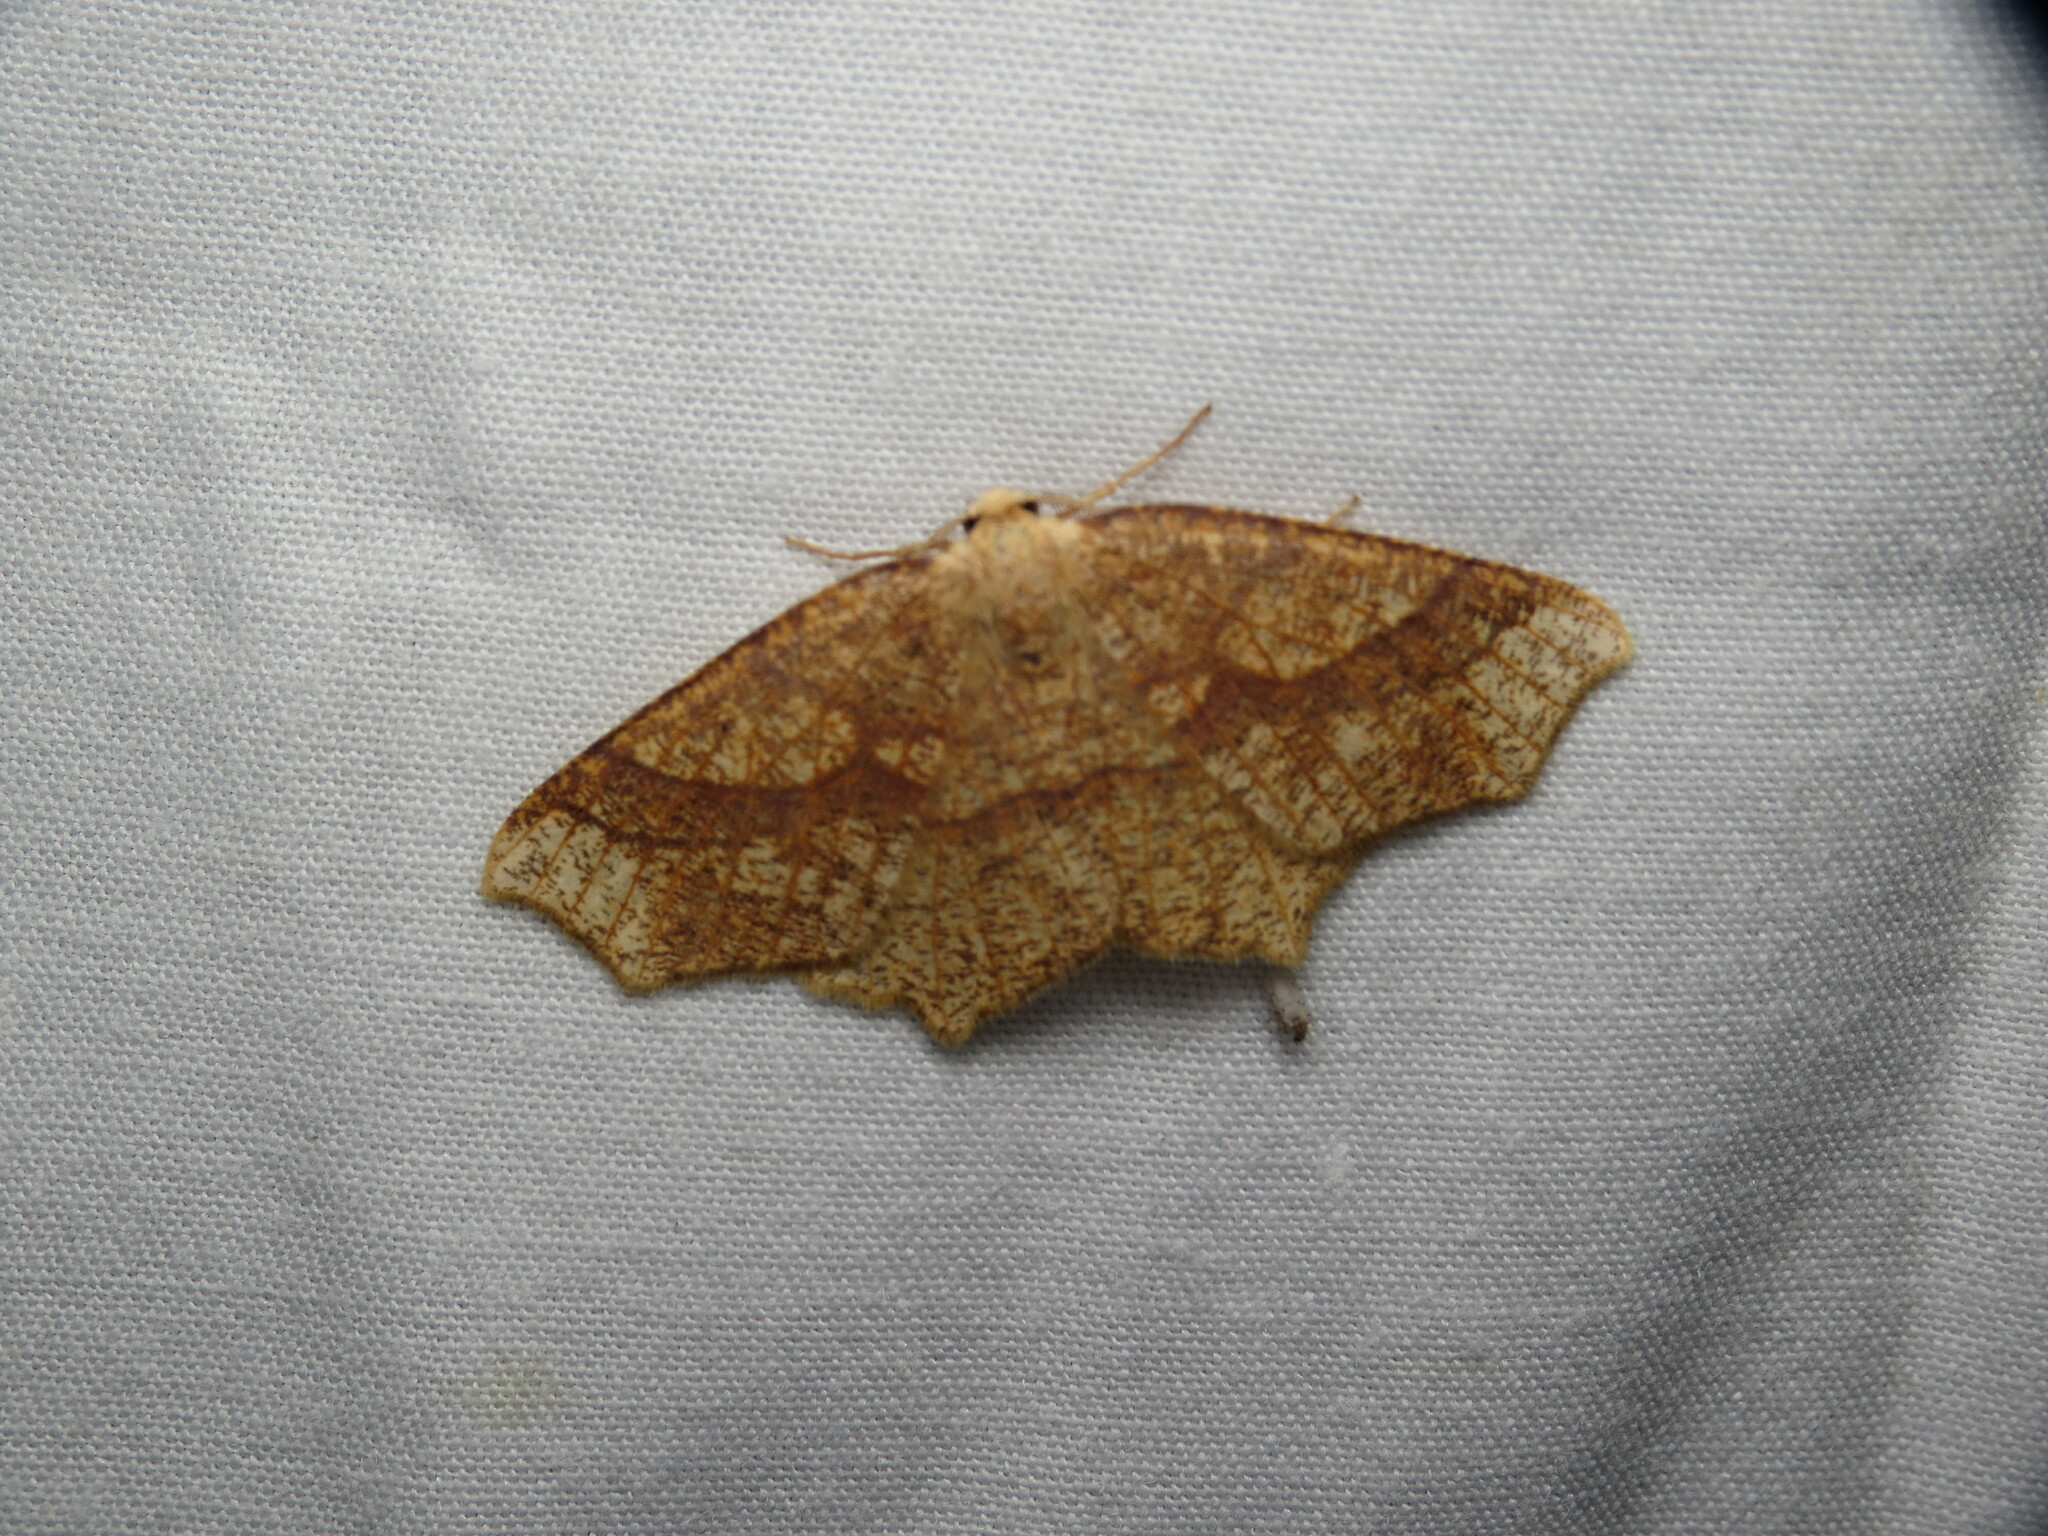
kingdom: Animalia
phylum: Arthropoda
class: Insecta
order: Lepidoptera
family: Geometridae
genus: Besma
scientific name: Besma quercivoraria
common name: Oak besma
